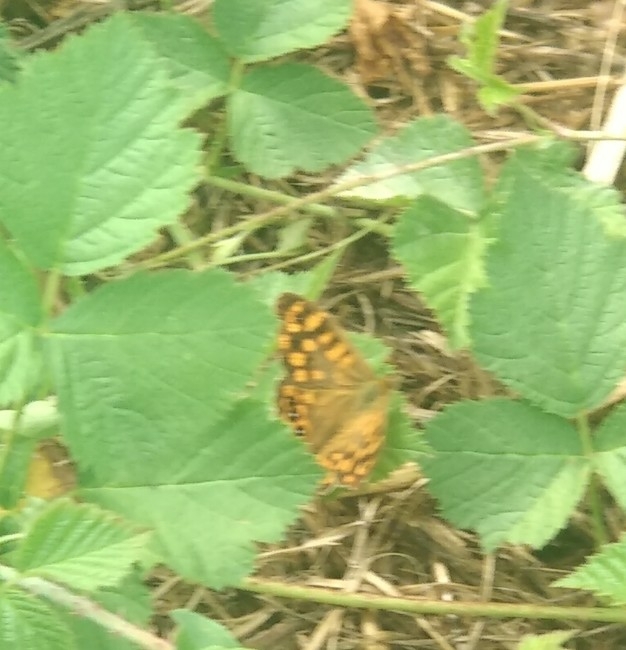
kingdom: Animalia
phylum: Arthropoda
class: Insecta
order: Lepidoptera
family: Nymphalidae
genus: Pararge
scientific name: Pararge aegeria
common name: Speckled wood
